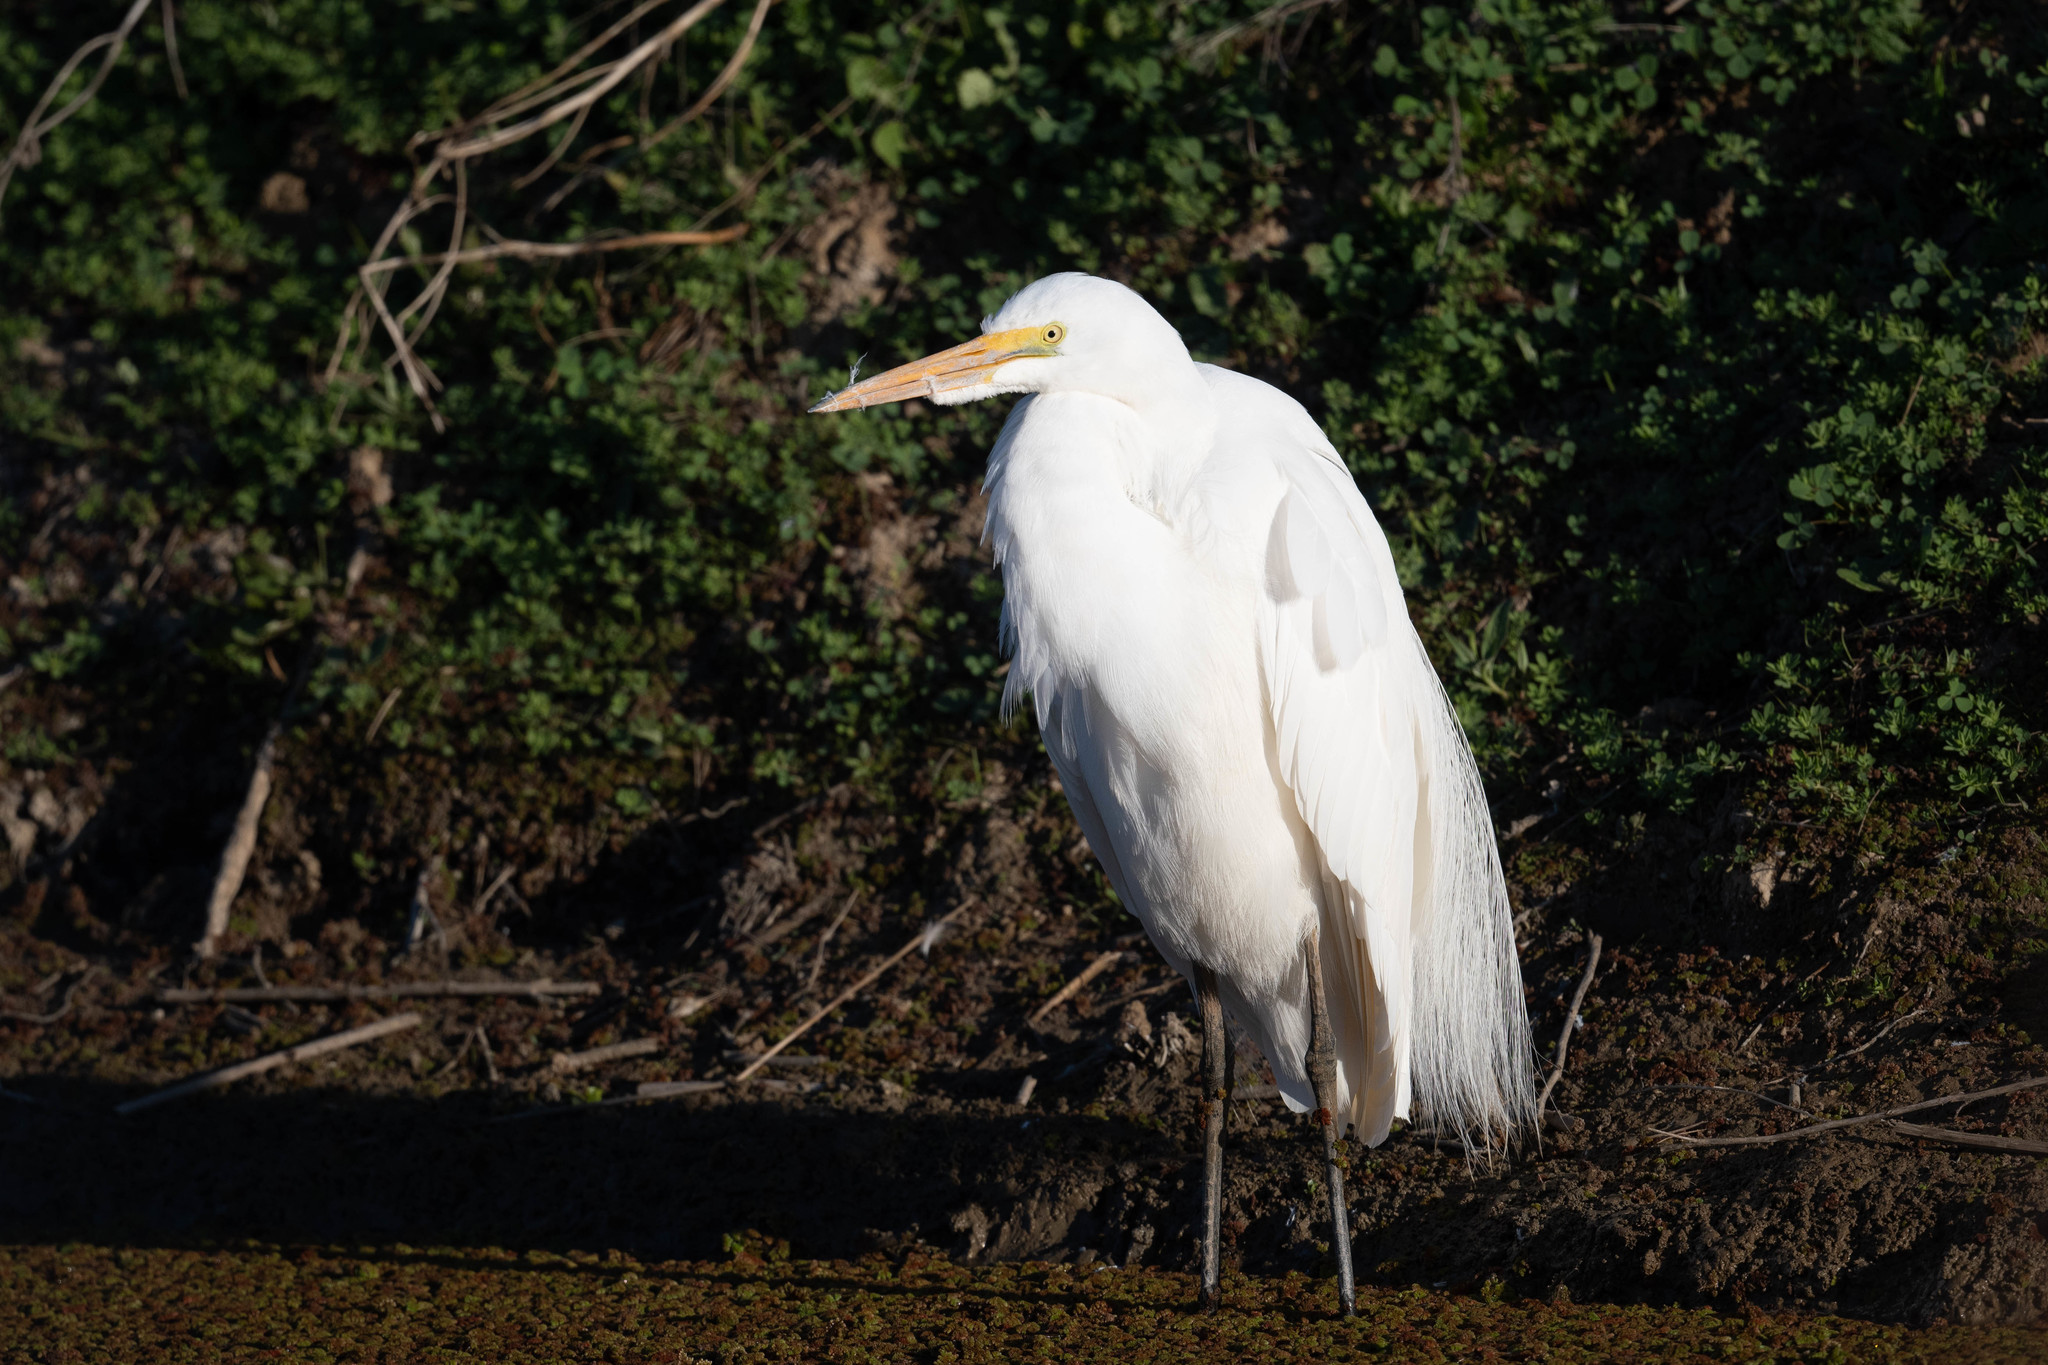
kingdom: Animalia
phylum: Chordata
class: Aves
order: Pelecaniformes
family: Ardeidae
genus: Ardea
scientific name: Ardea alba
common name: Great egret
